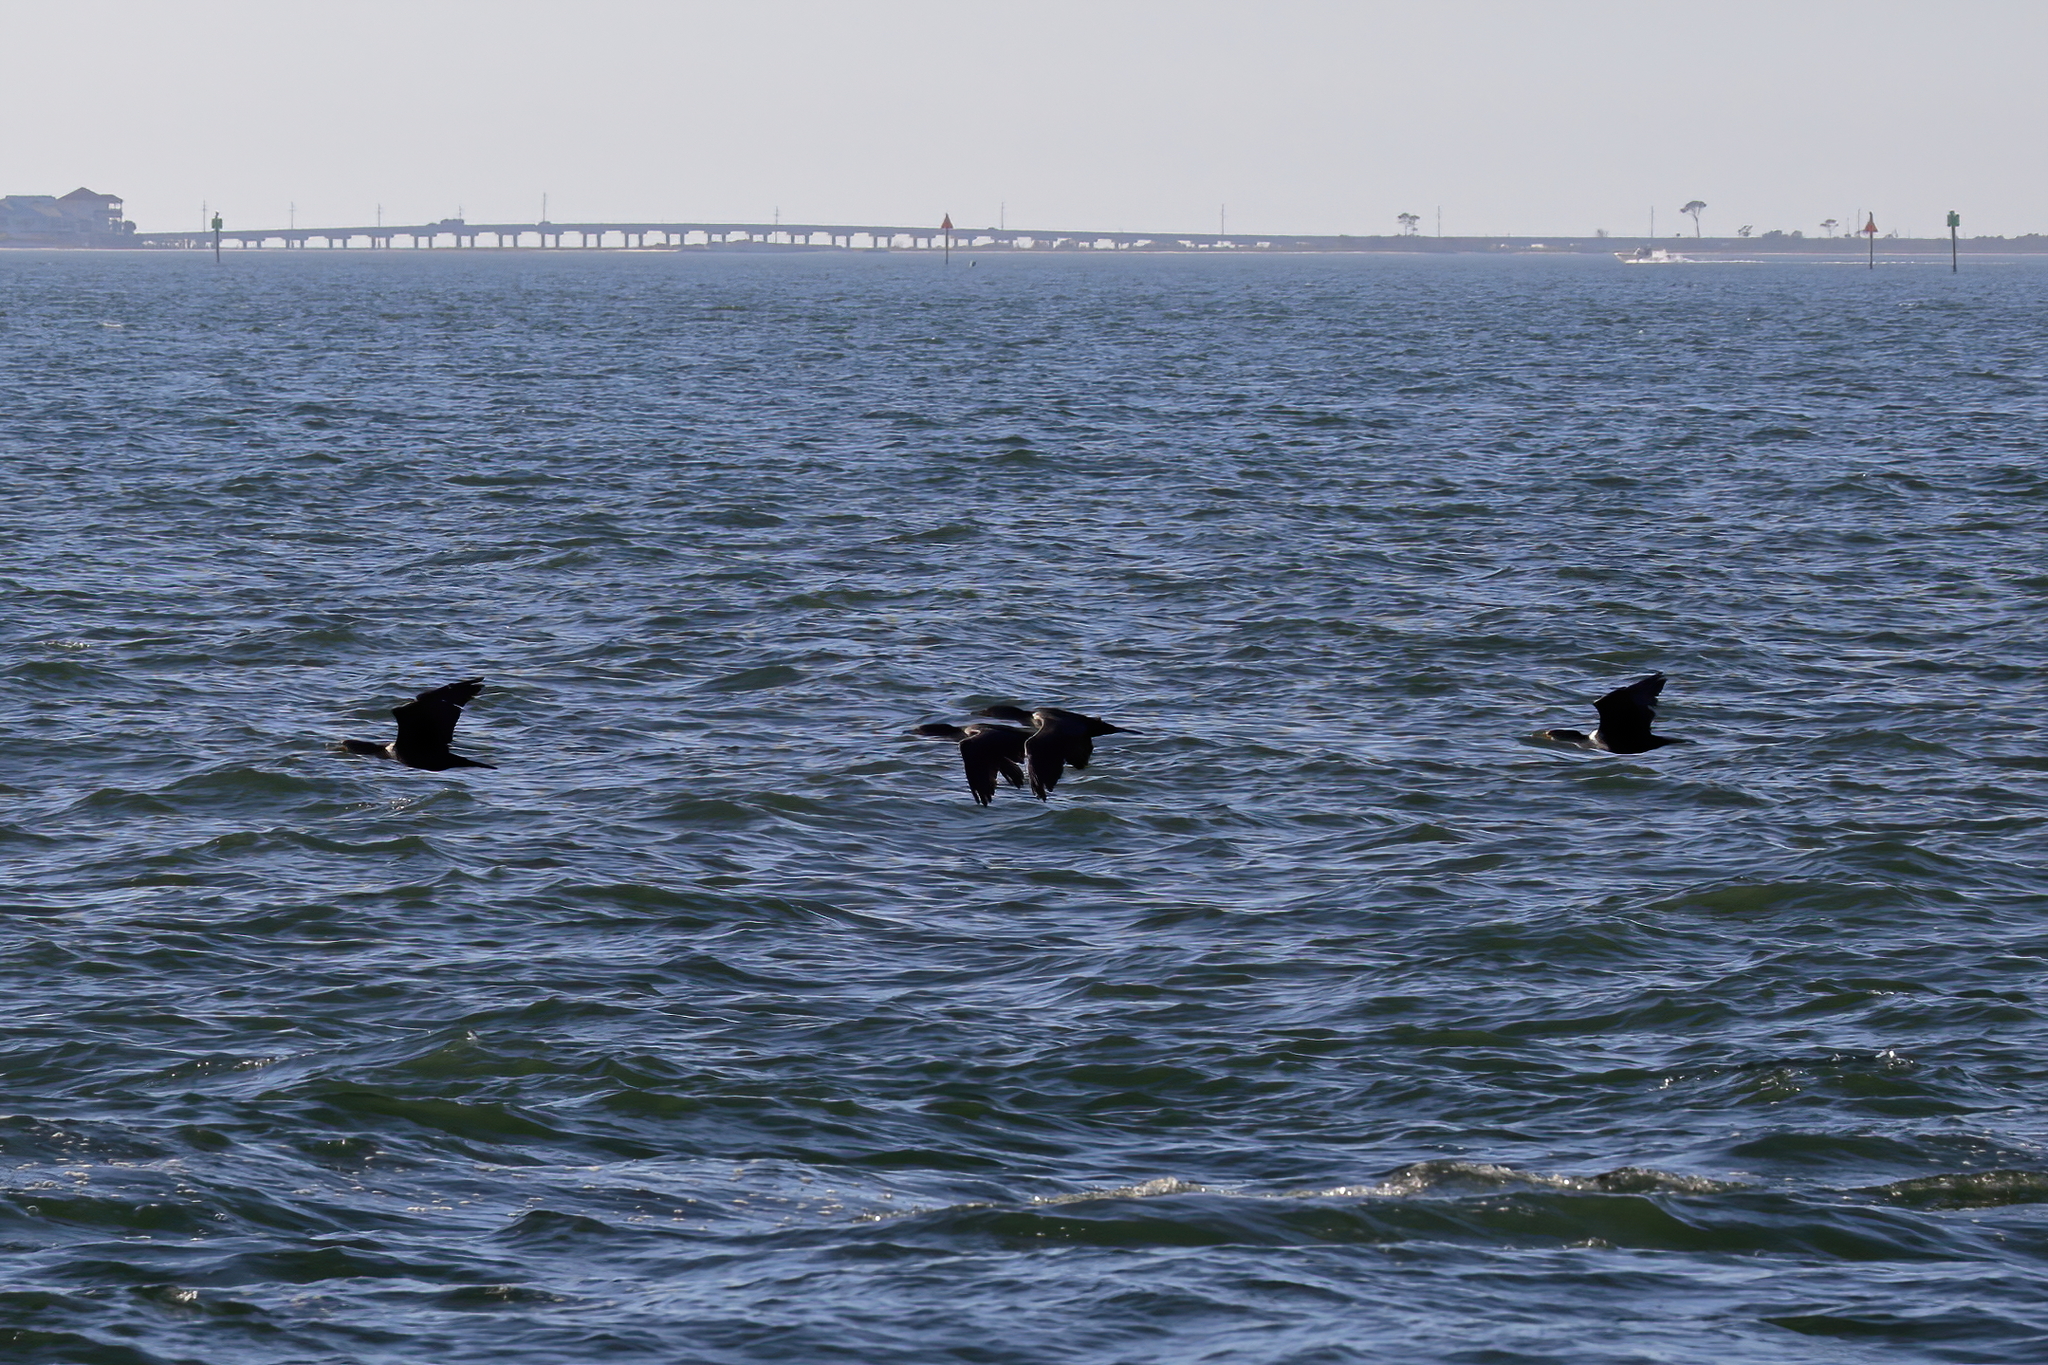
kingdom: Animalia
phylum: Chordata
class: Aves
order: Suliformes
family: Phalacrocoracidae
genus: Phalacrocorax
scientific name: Phalacrocorax auritus
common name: Double-crested cormorant
